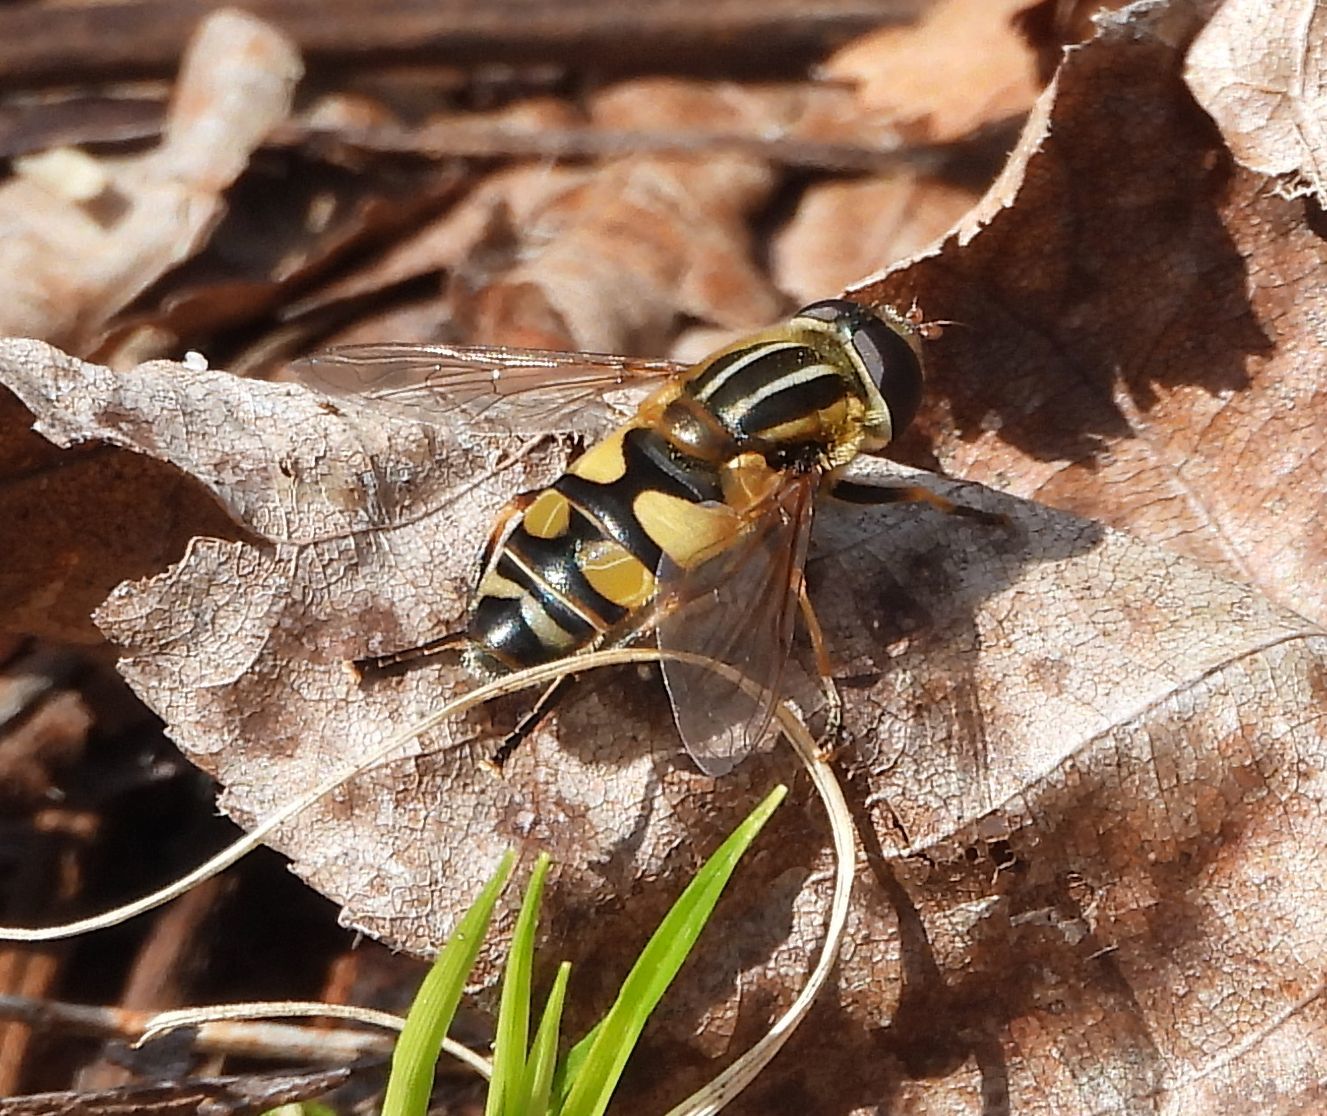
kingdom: Animalia
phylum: Arthropoda
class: Insecta
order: Diptera
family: Syrphidae
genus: Helophilus
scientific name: Helophilus fasciatus
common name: Narrow-headed marsh fly
